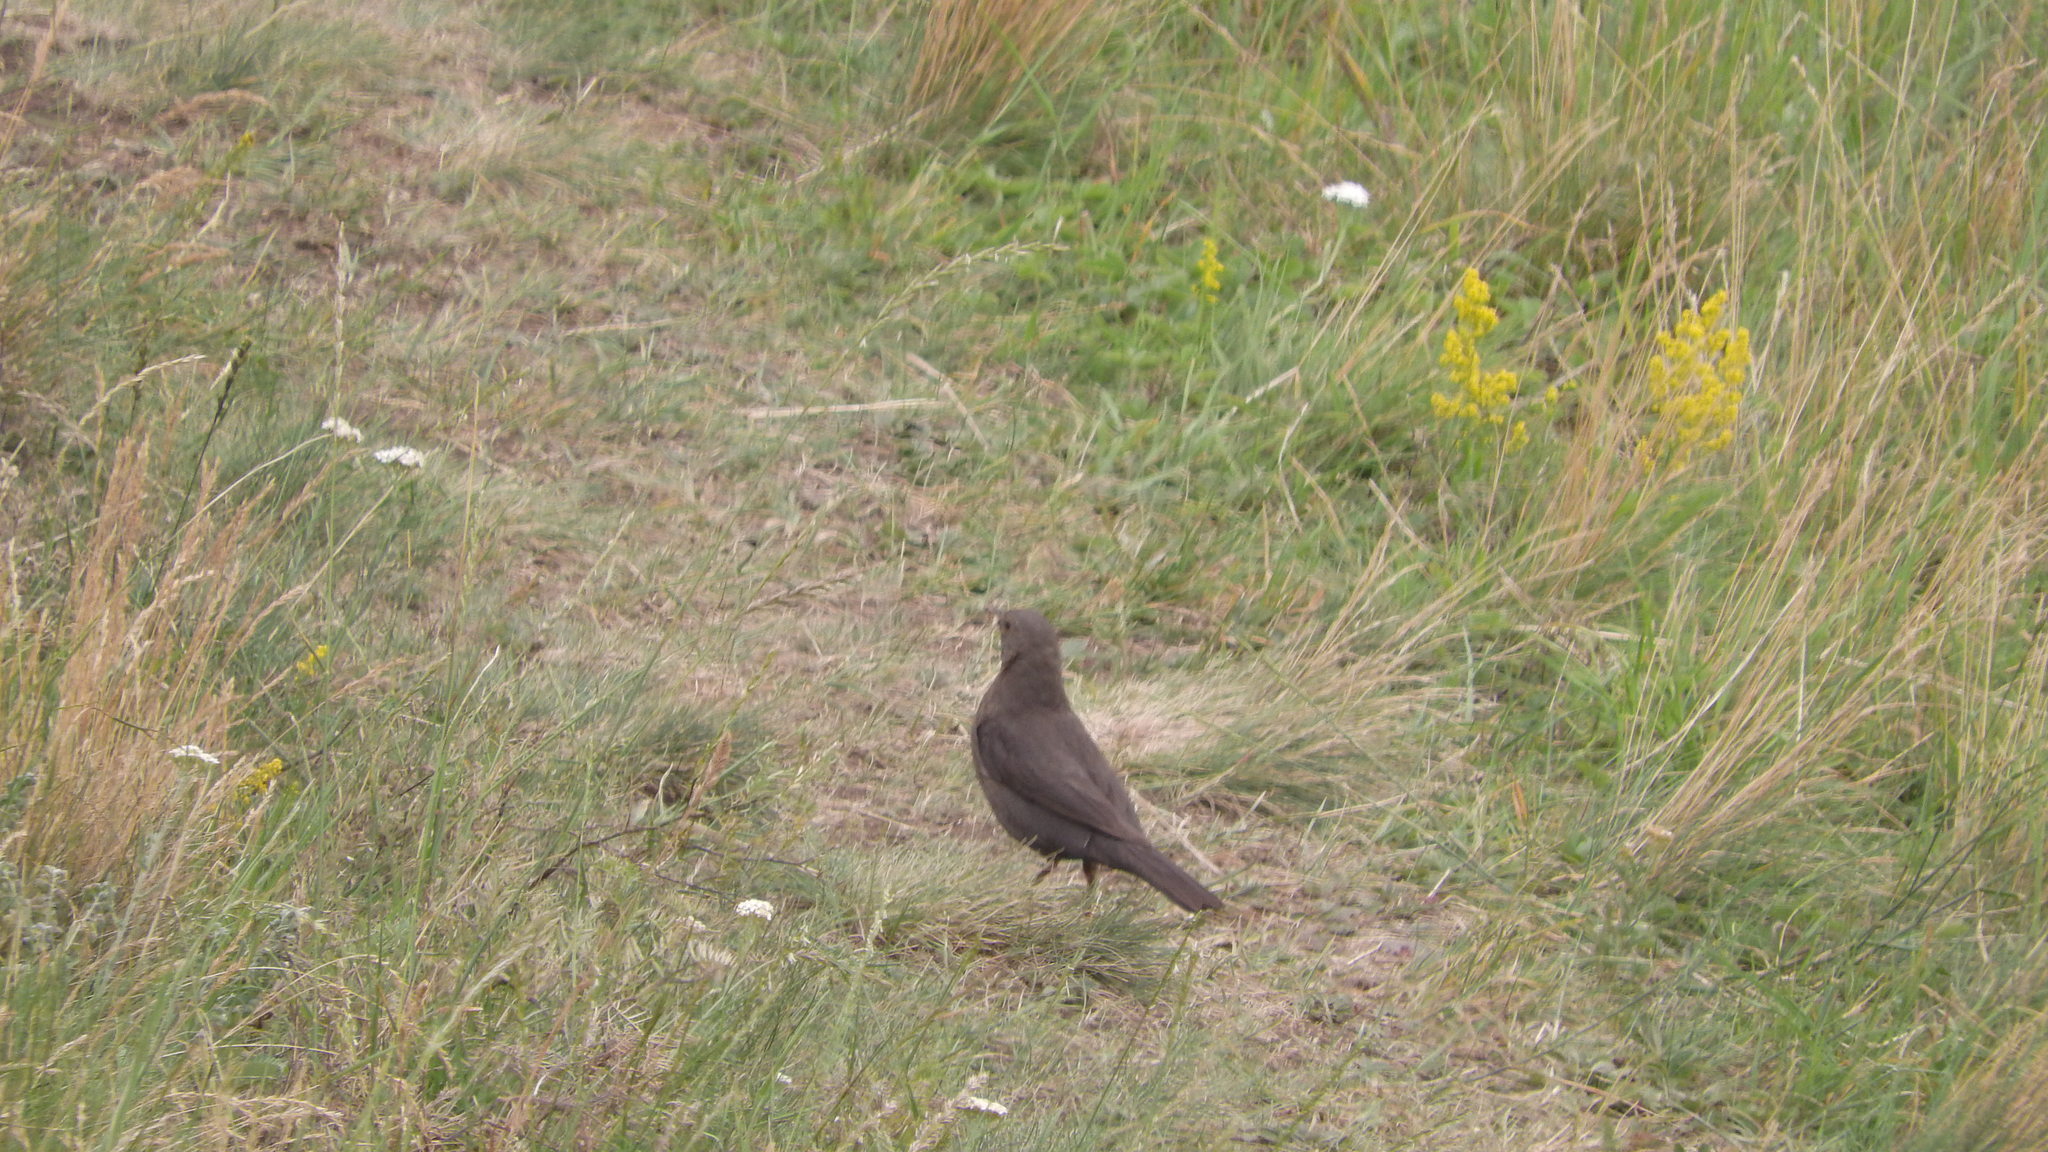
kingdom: Animalia
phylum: Chordata
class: Aves
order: Passeriformes
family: Turdidae
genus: Turdus
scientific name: Turdus merula
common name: Common blackbird
